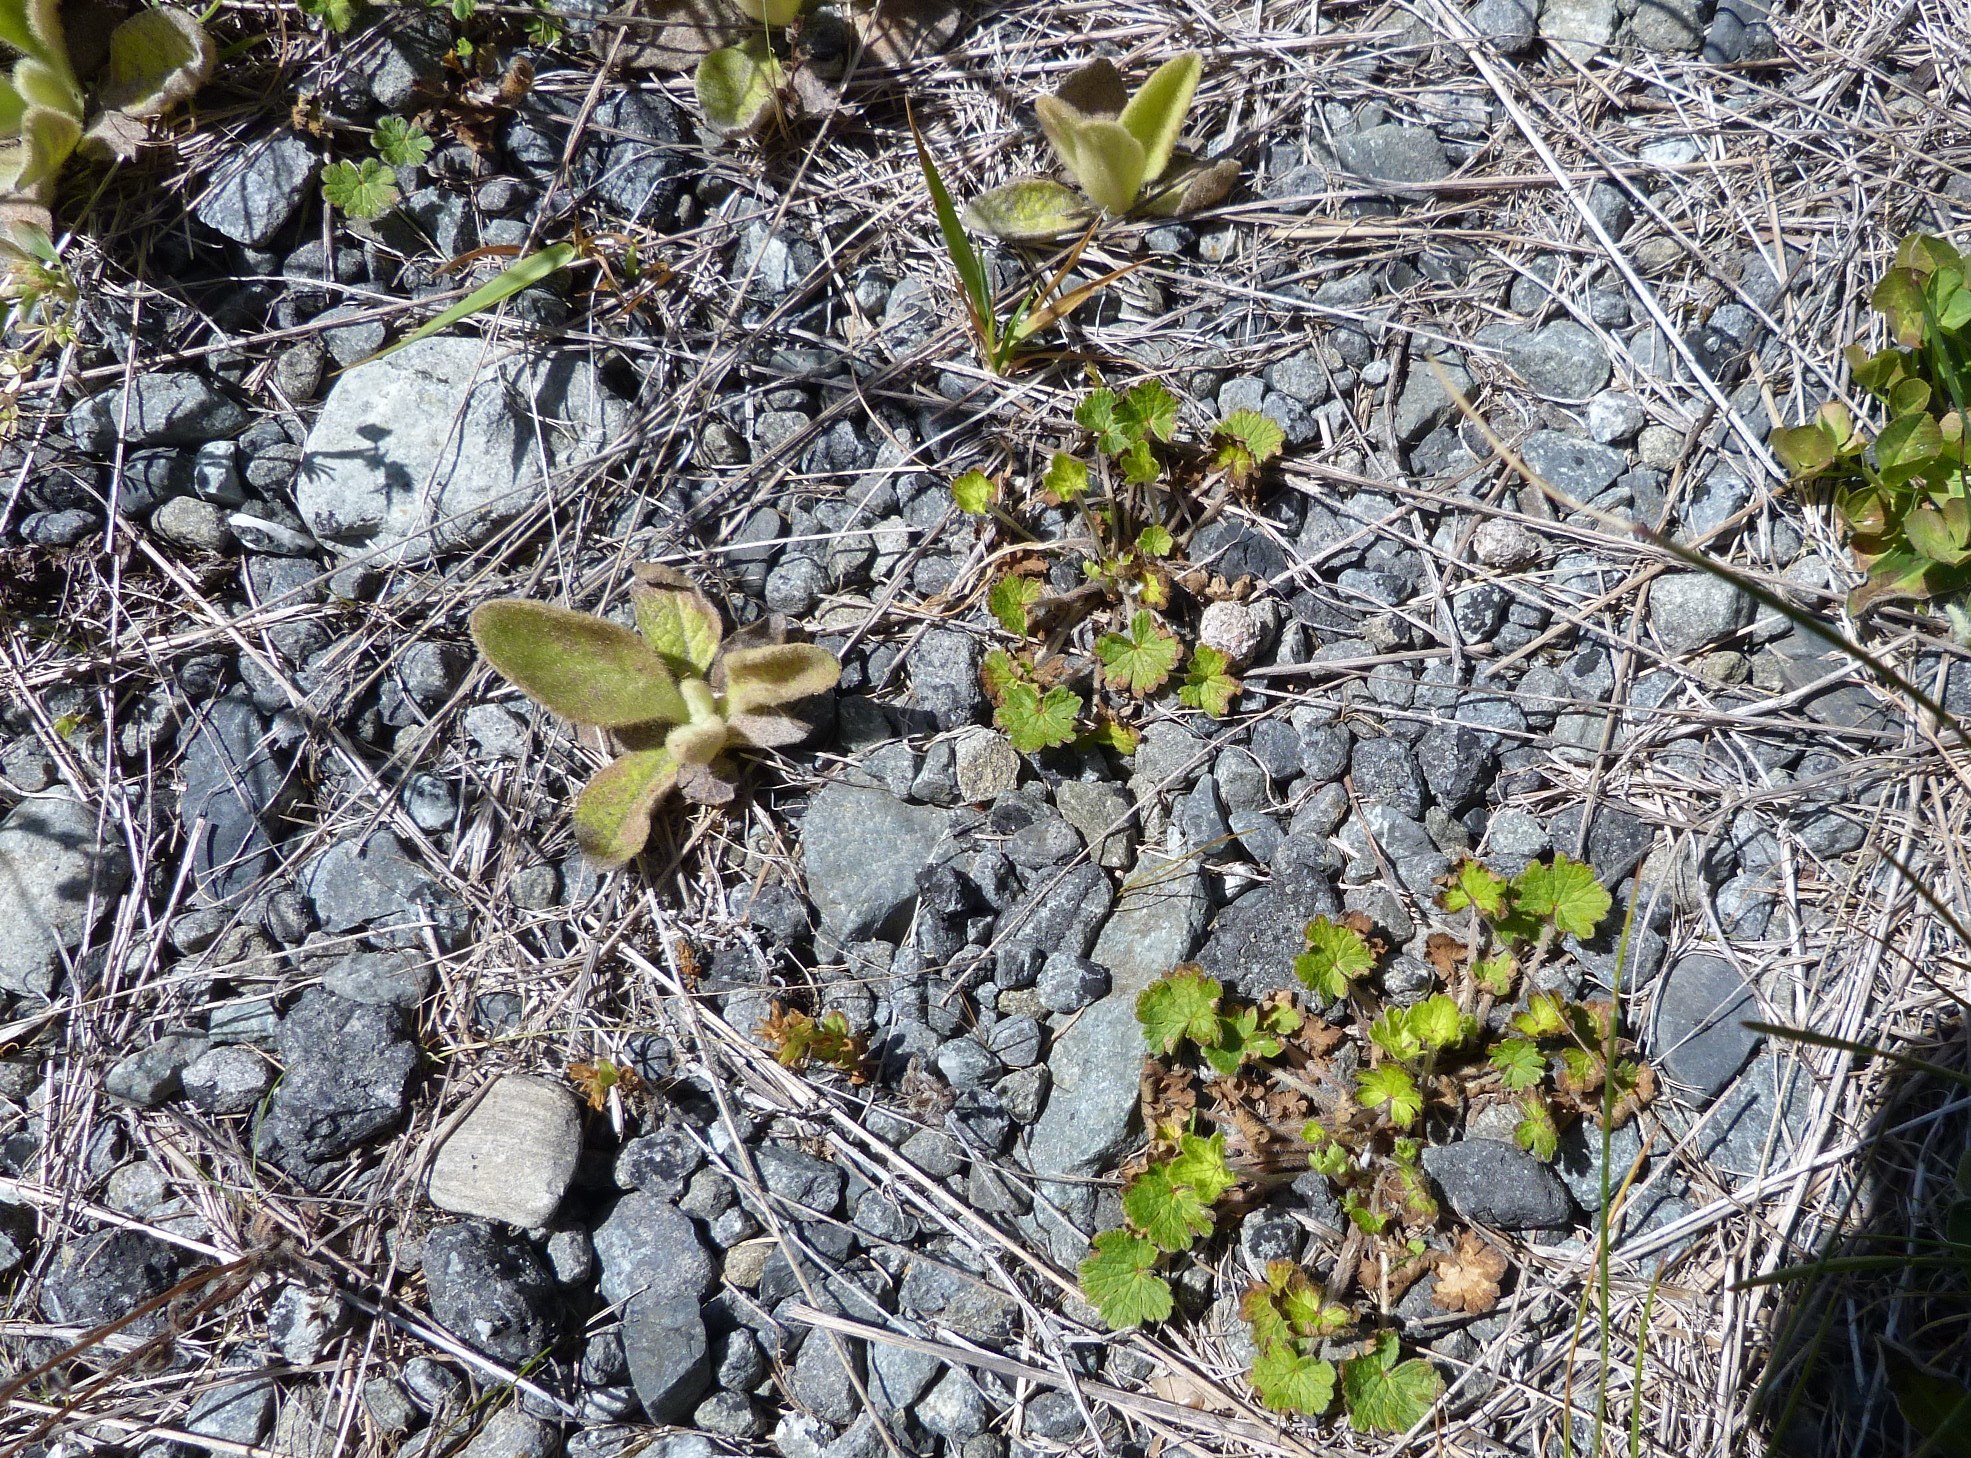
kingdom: Plantae
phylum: Tracheophyta
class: Magnoliopsida
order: Geraniales
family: Geraniaceae
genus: Geranium
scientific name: Geranium brevicaule
